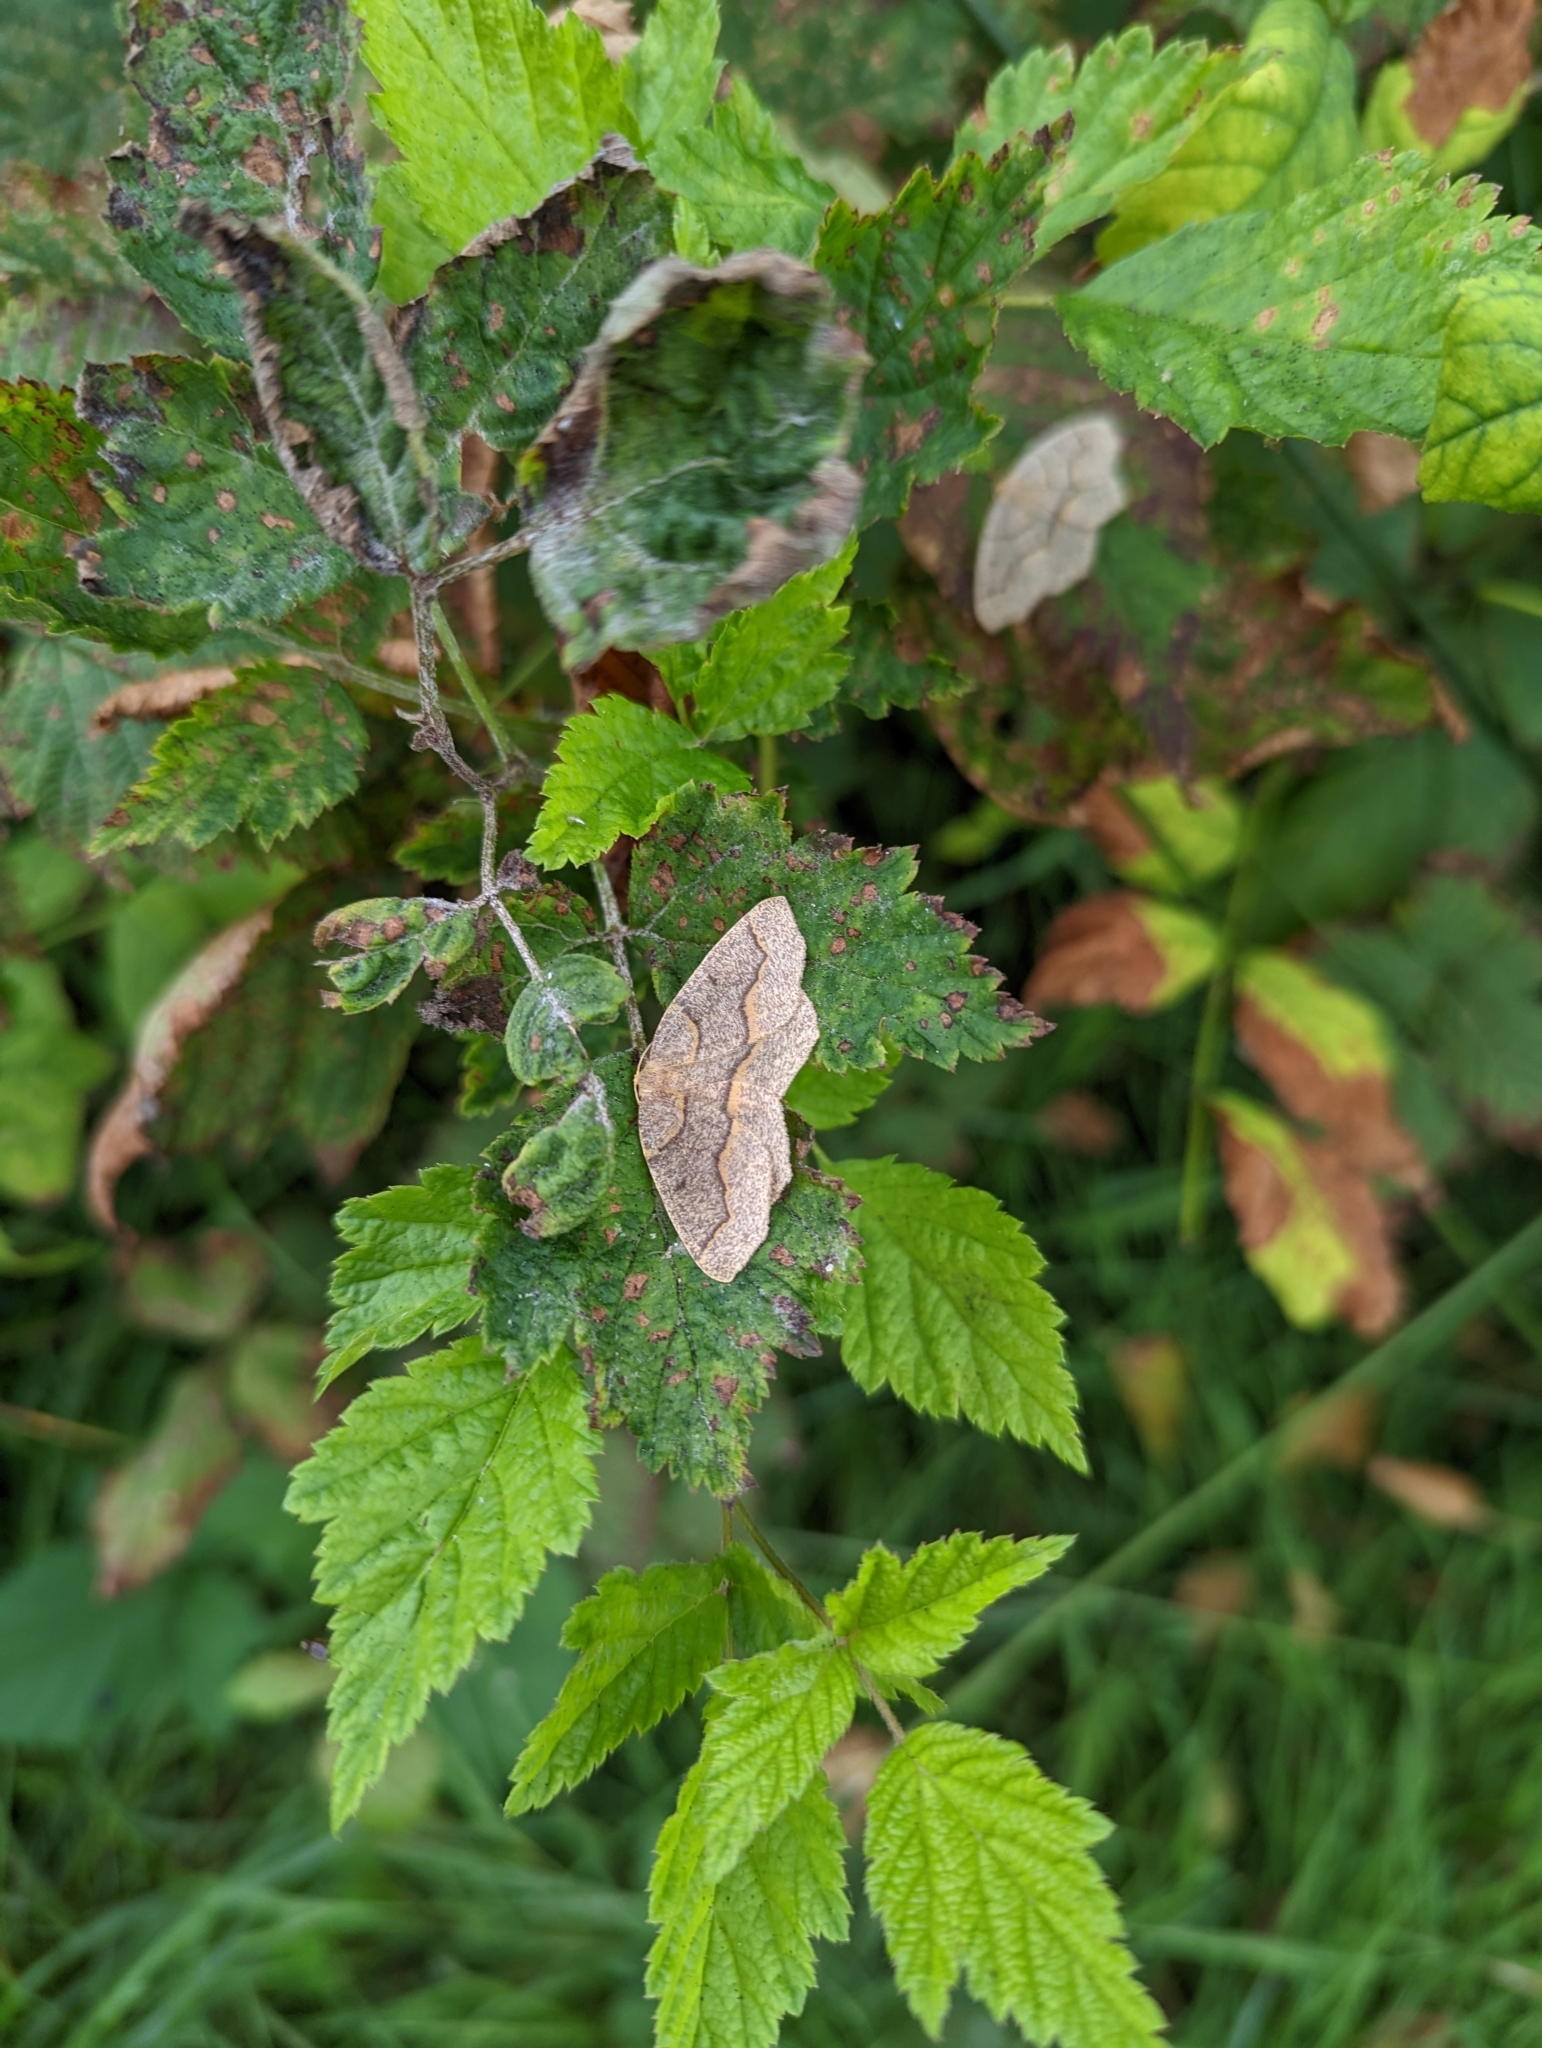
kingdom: Animalia
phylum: Arthropoda
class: Insecta
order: Lepidoptera
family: Geometridae
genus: Lambdina
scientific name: Lambdina fiscellaria
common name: Hemlock looper
